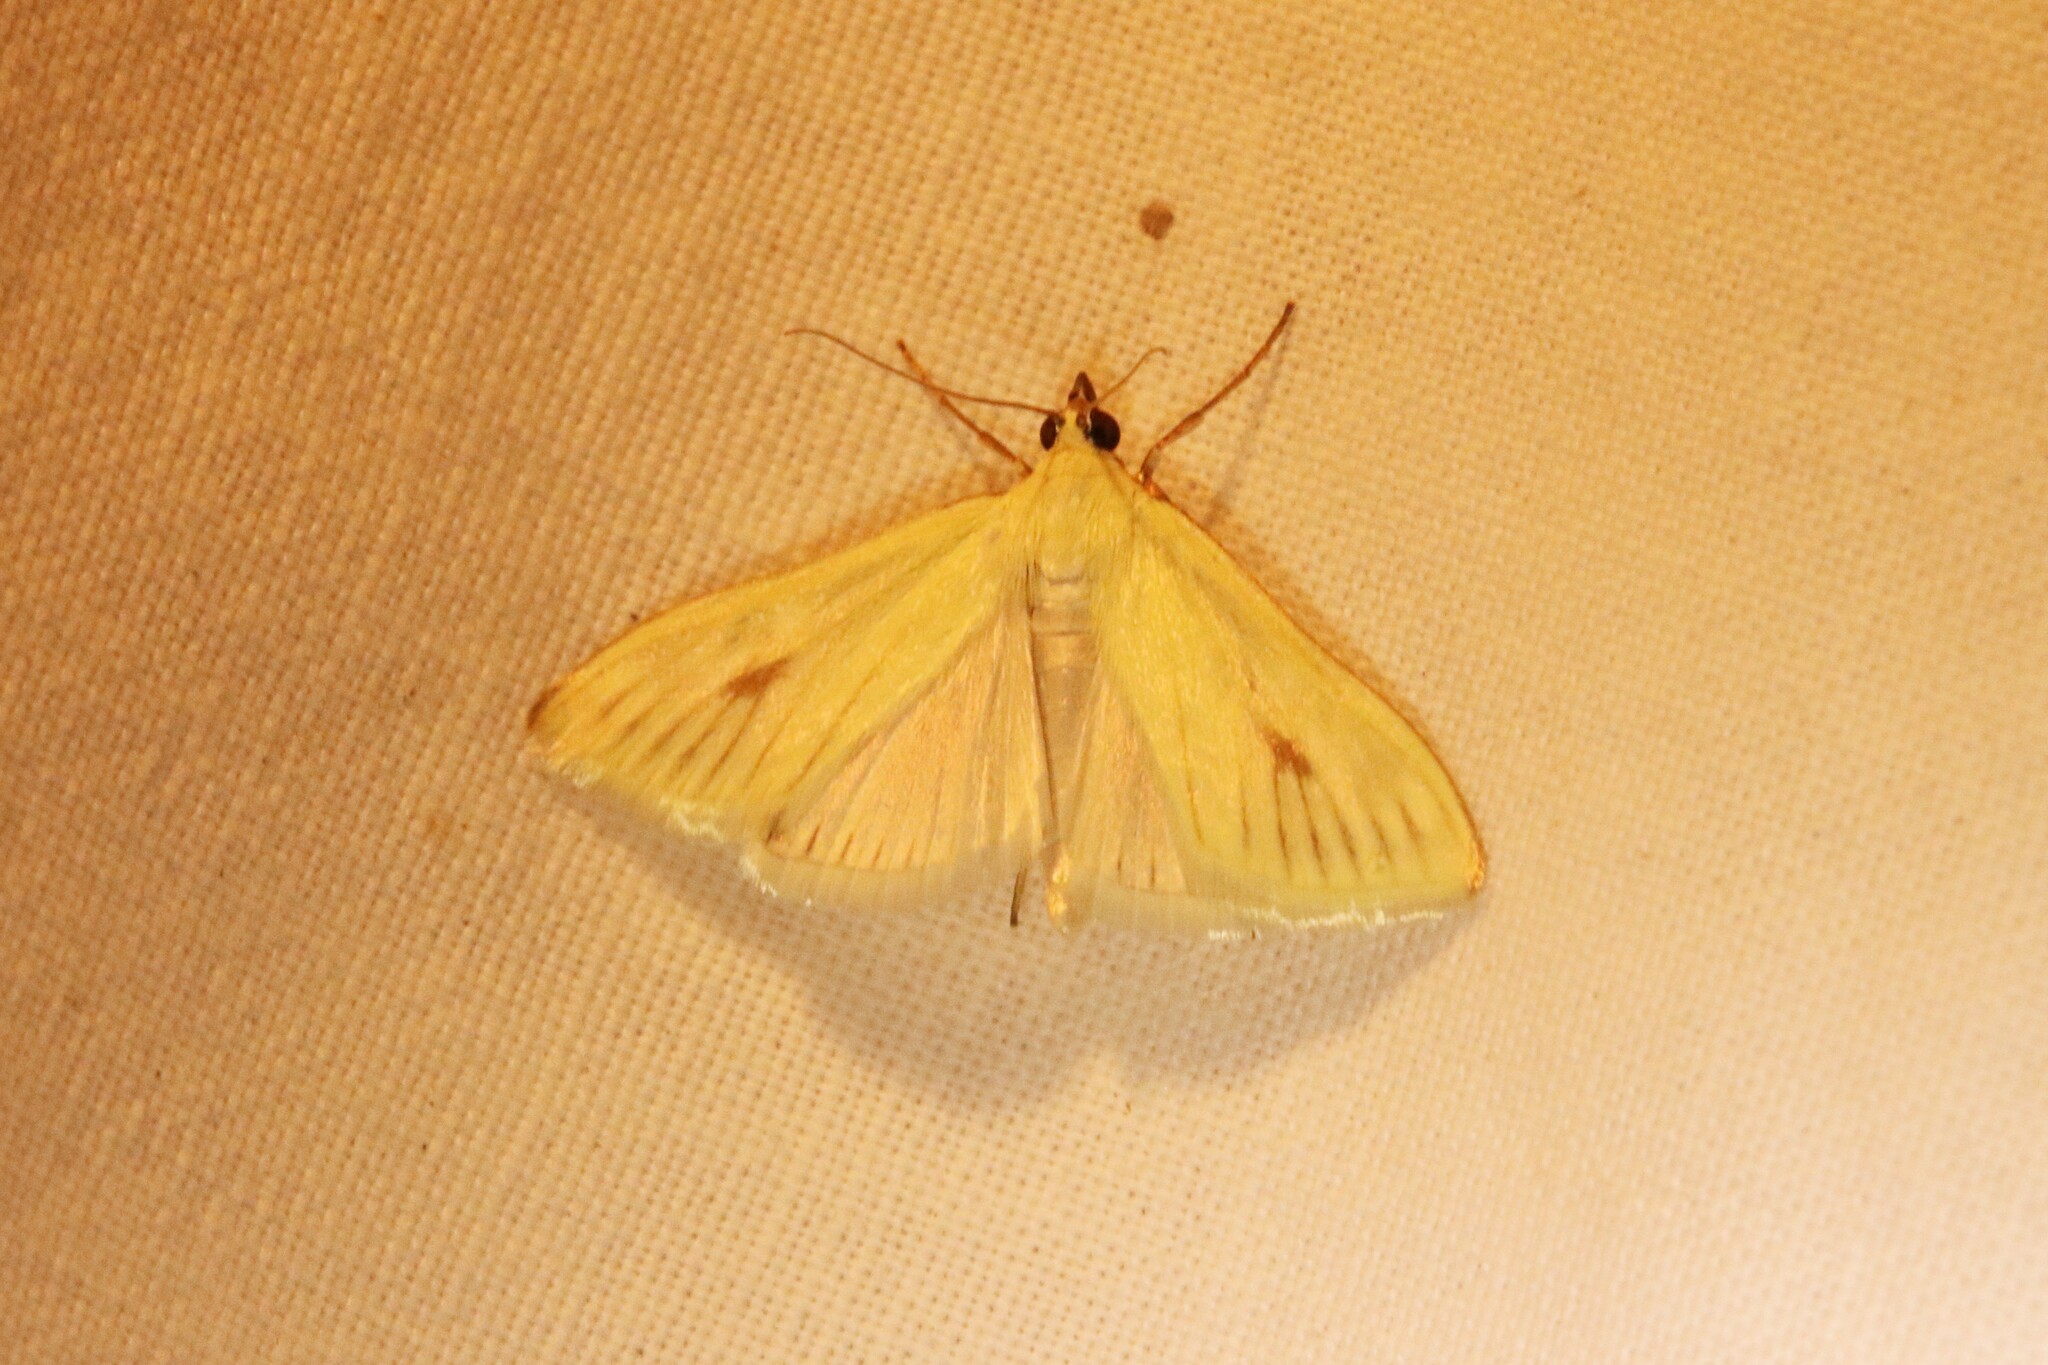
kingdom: Animalia
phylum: Arthropoda
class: Insecta
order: Lepidoptera
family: Crambidae
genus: Sitochroa
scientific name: Sitochroa palealis
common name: Greenish-yellow sitochroa moth
